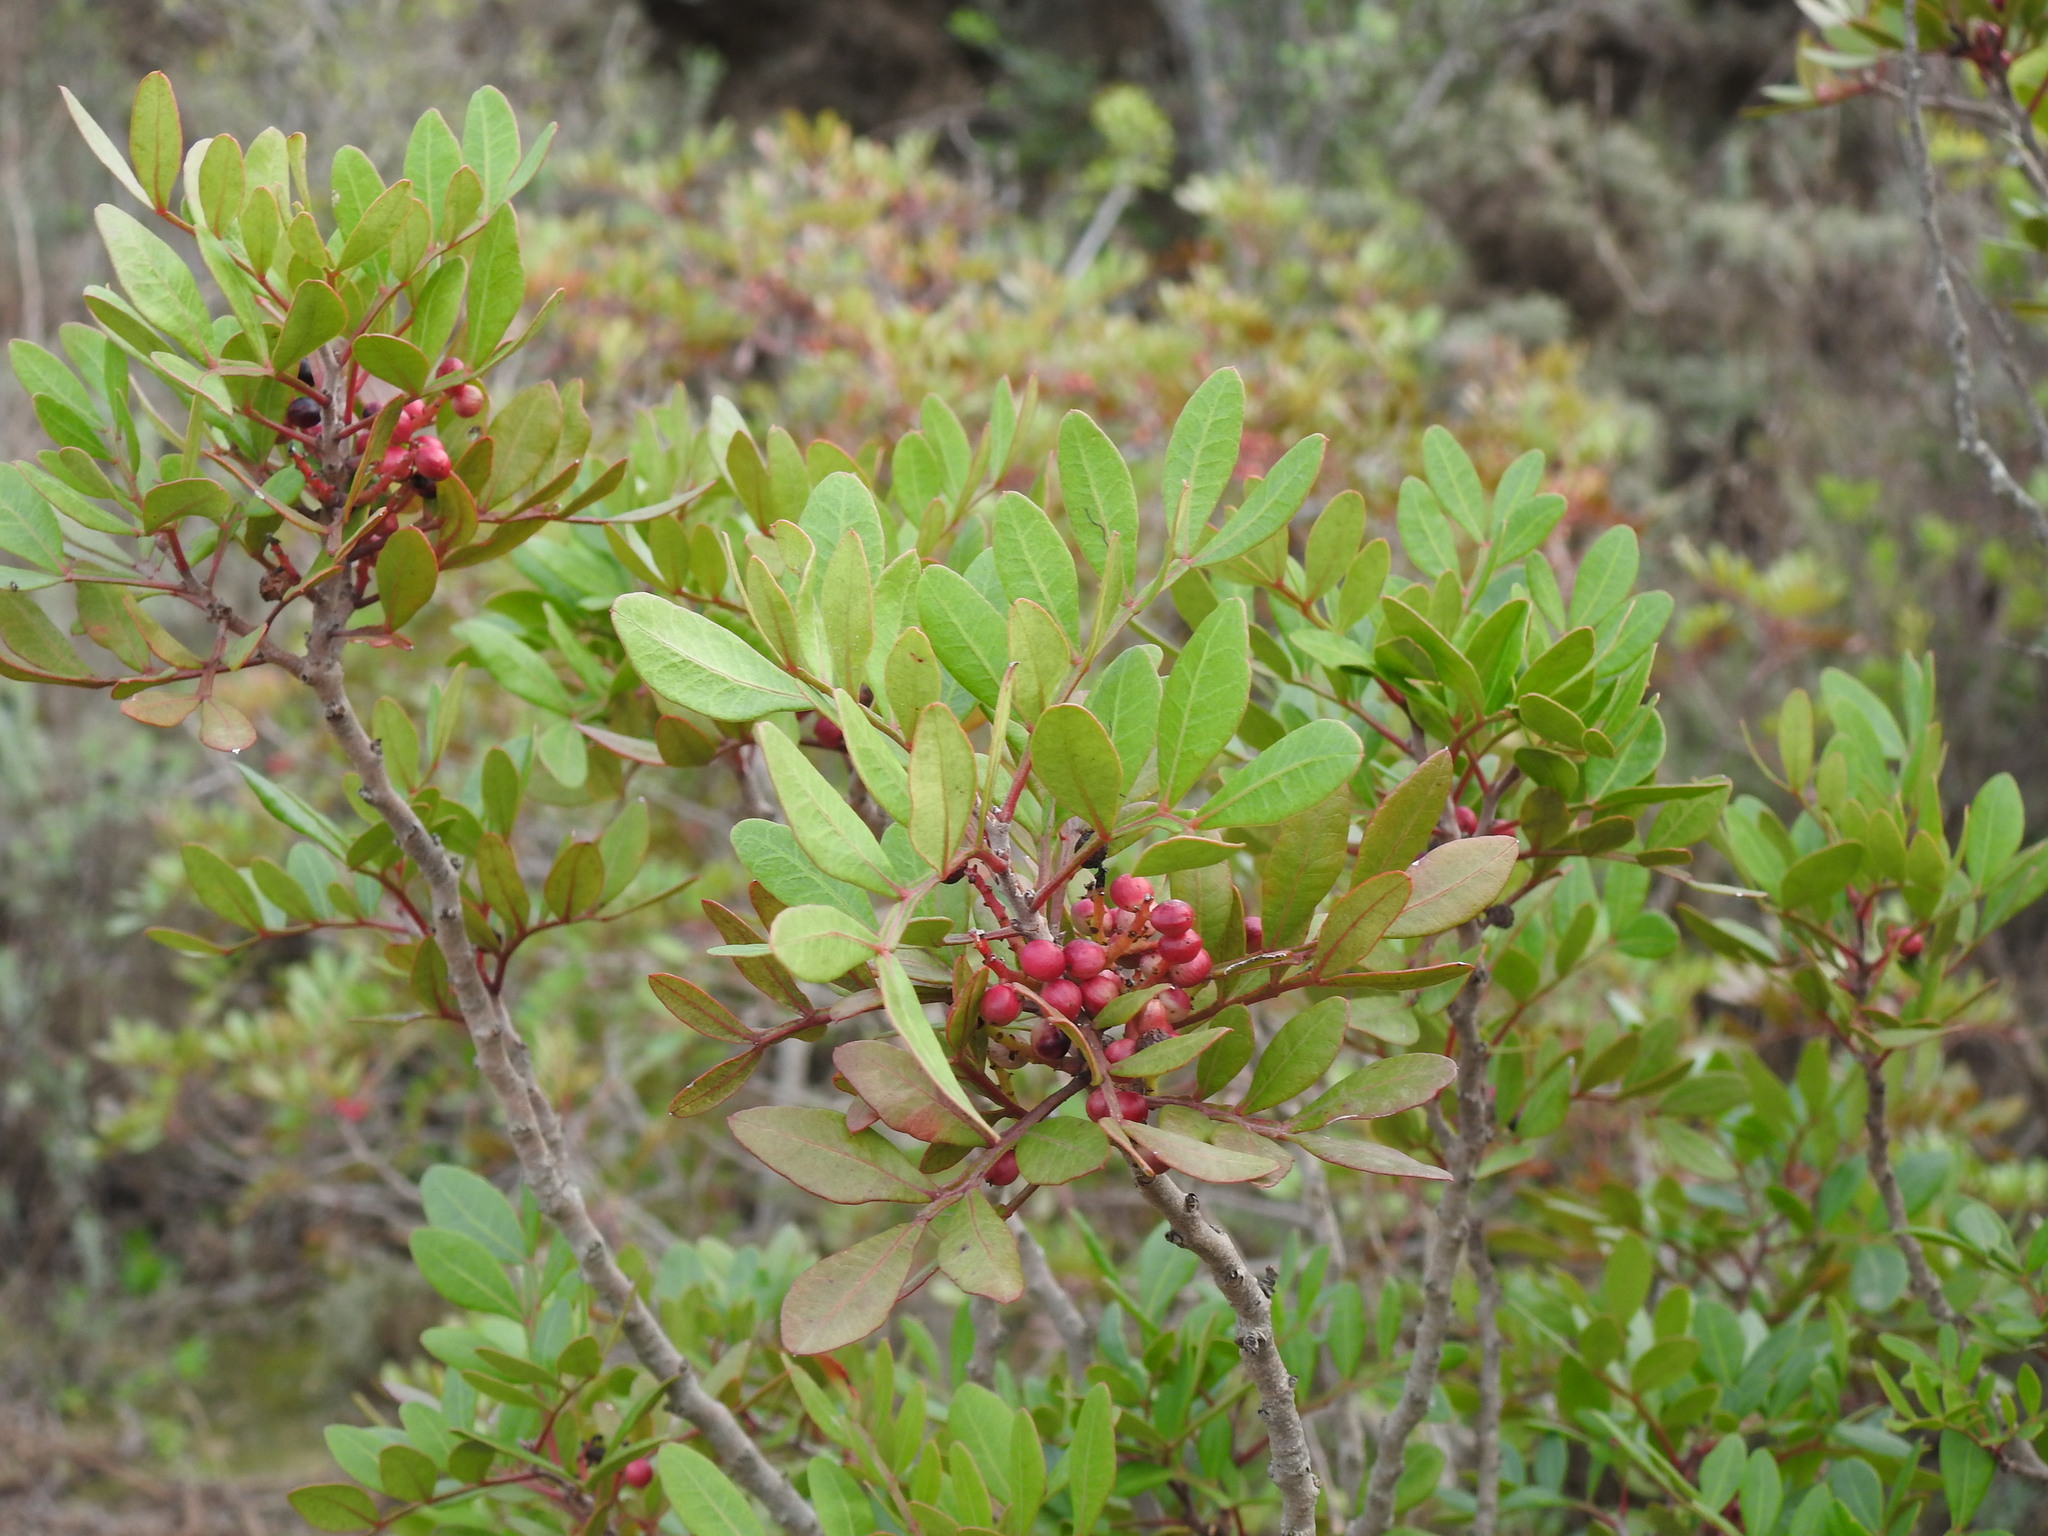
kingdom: Plantae
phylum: Tracheophyta
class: Magnoliopsida
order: Sapindales
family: Anacardiaceae
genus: Pistacia
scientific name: Pistacia lentiscus
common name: Lentisk
